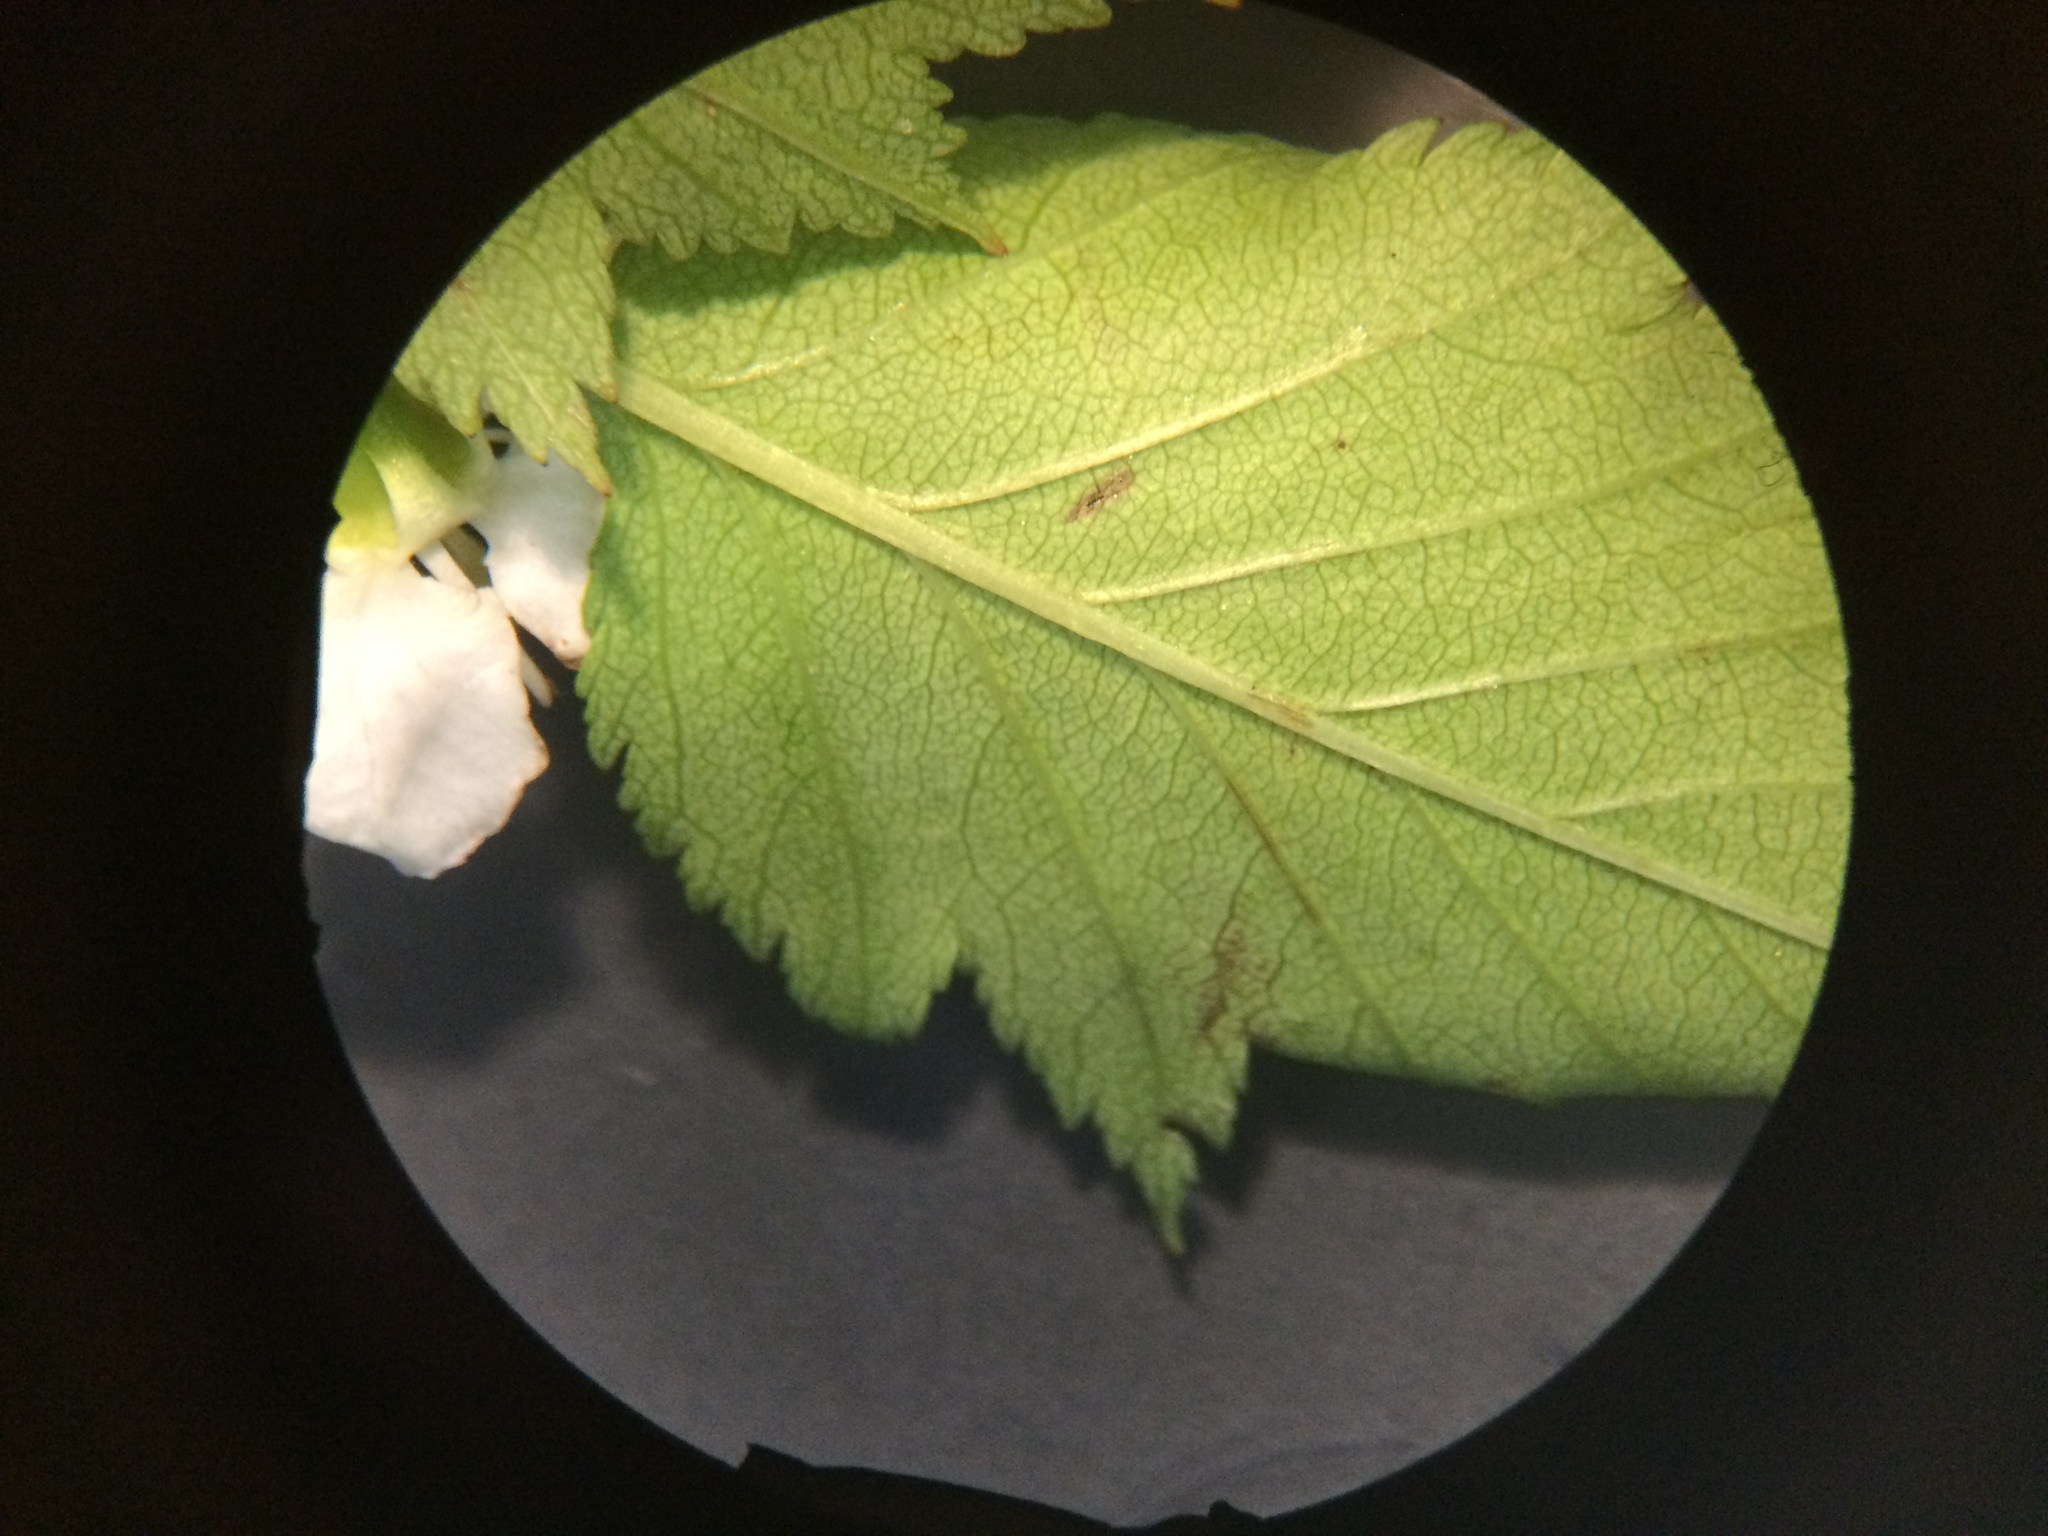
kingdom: Plantae
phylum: Tracheophyta
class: Magnoliopsida
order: Rosales
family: Rosaceae
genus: Crataegus
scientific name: Crataegus flabellata
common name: Bosc's hawthorn
